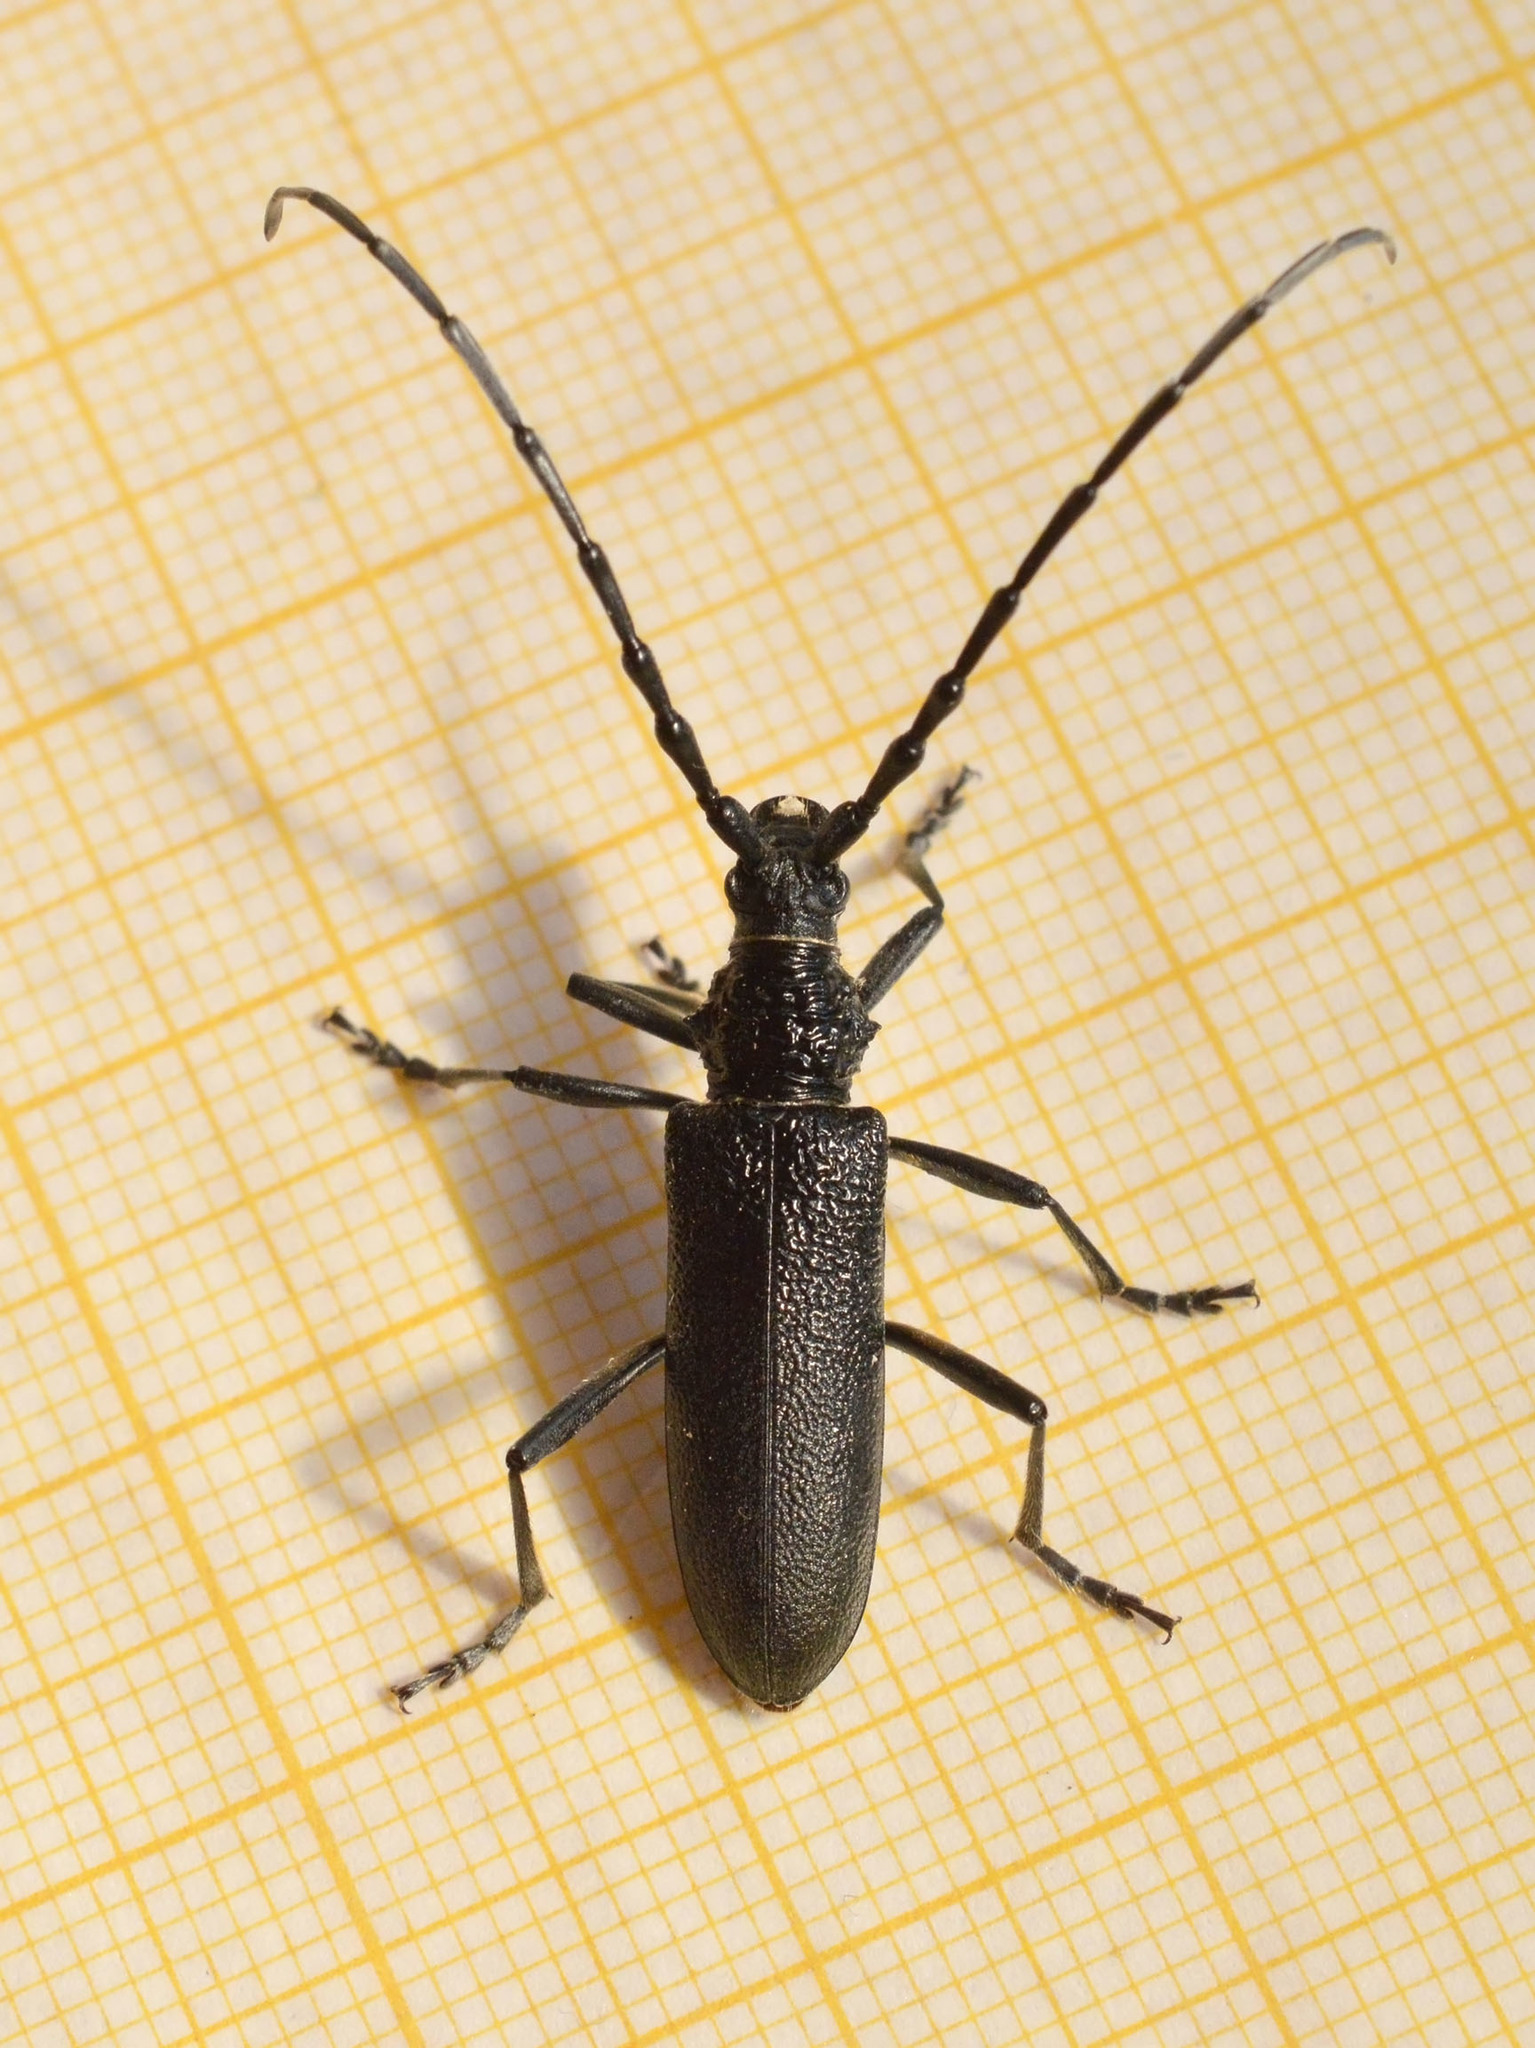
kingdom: Animalia
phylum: Arthropoda
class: Insecta
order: Coleoptera
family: Cerambycidae
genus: Cerambyx
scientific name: Cerambyx scopolii
